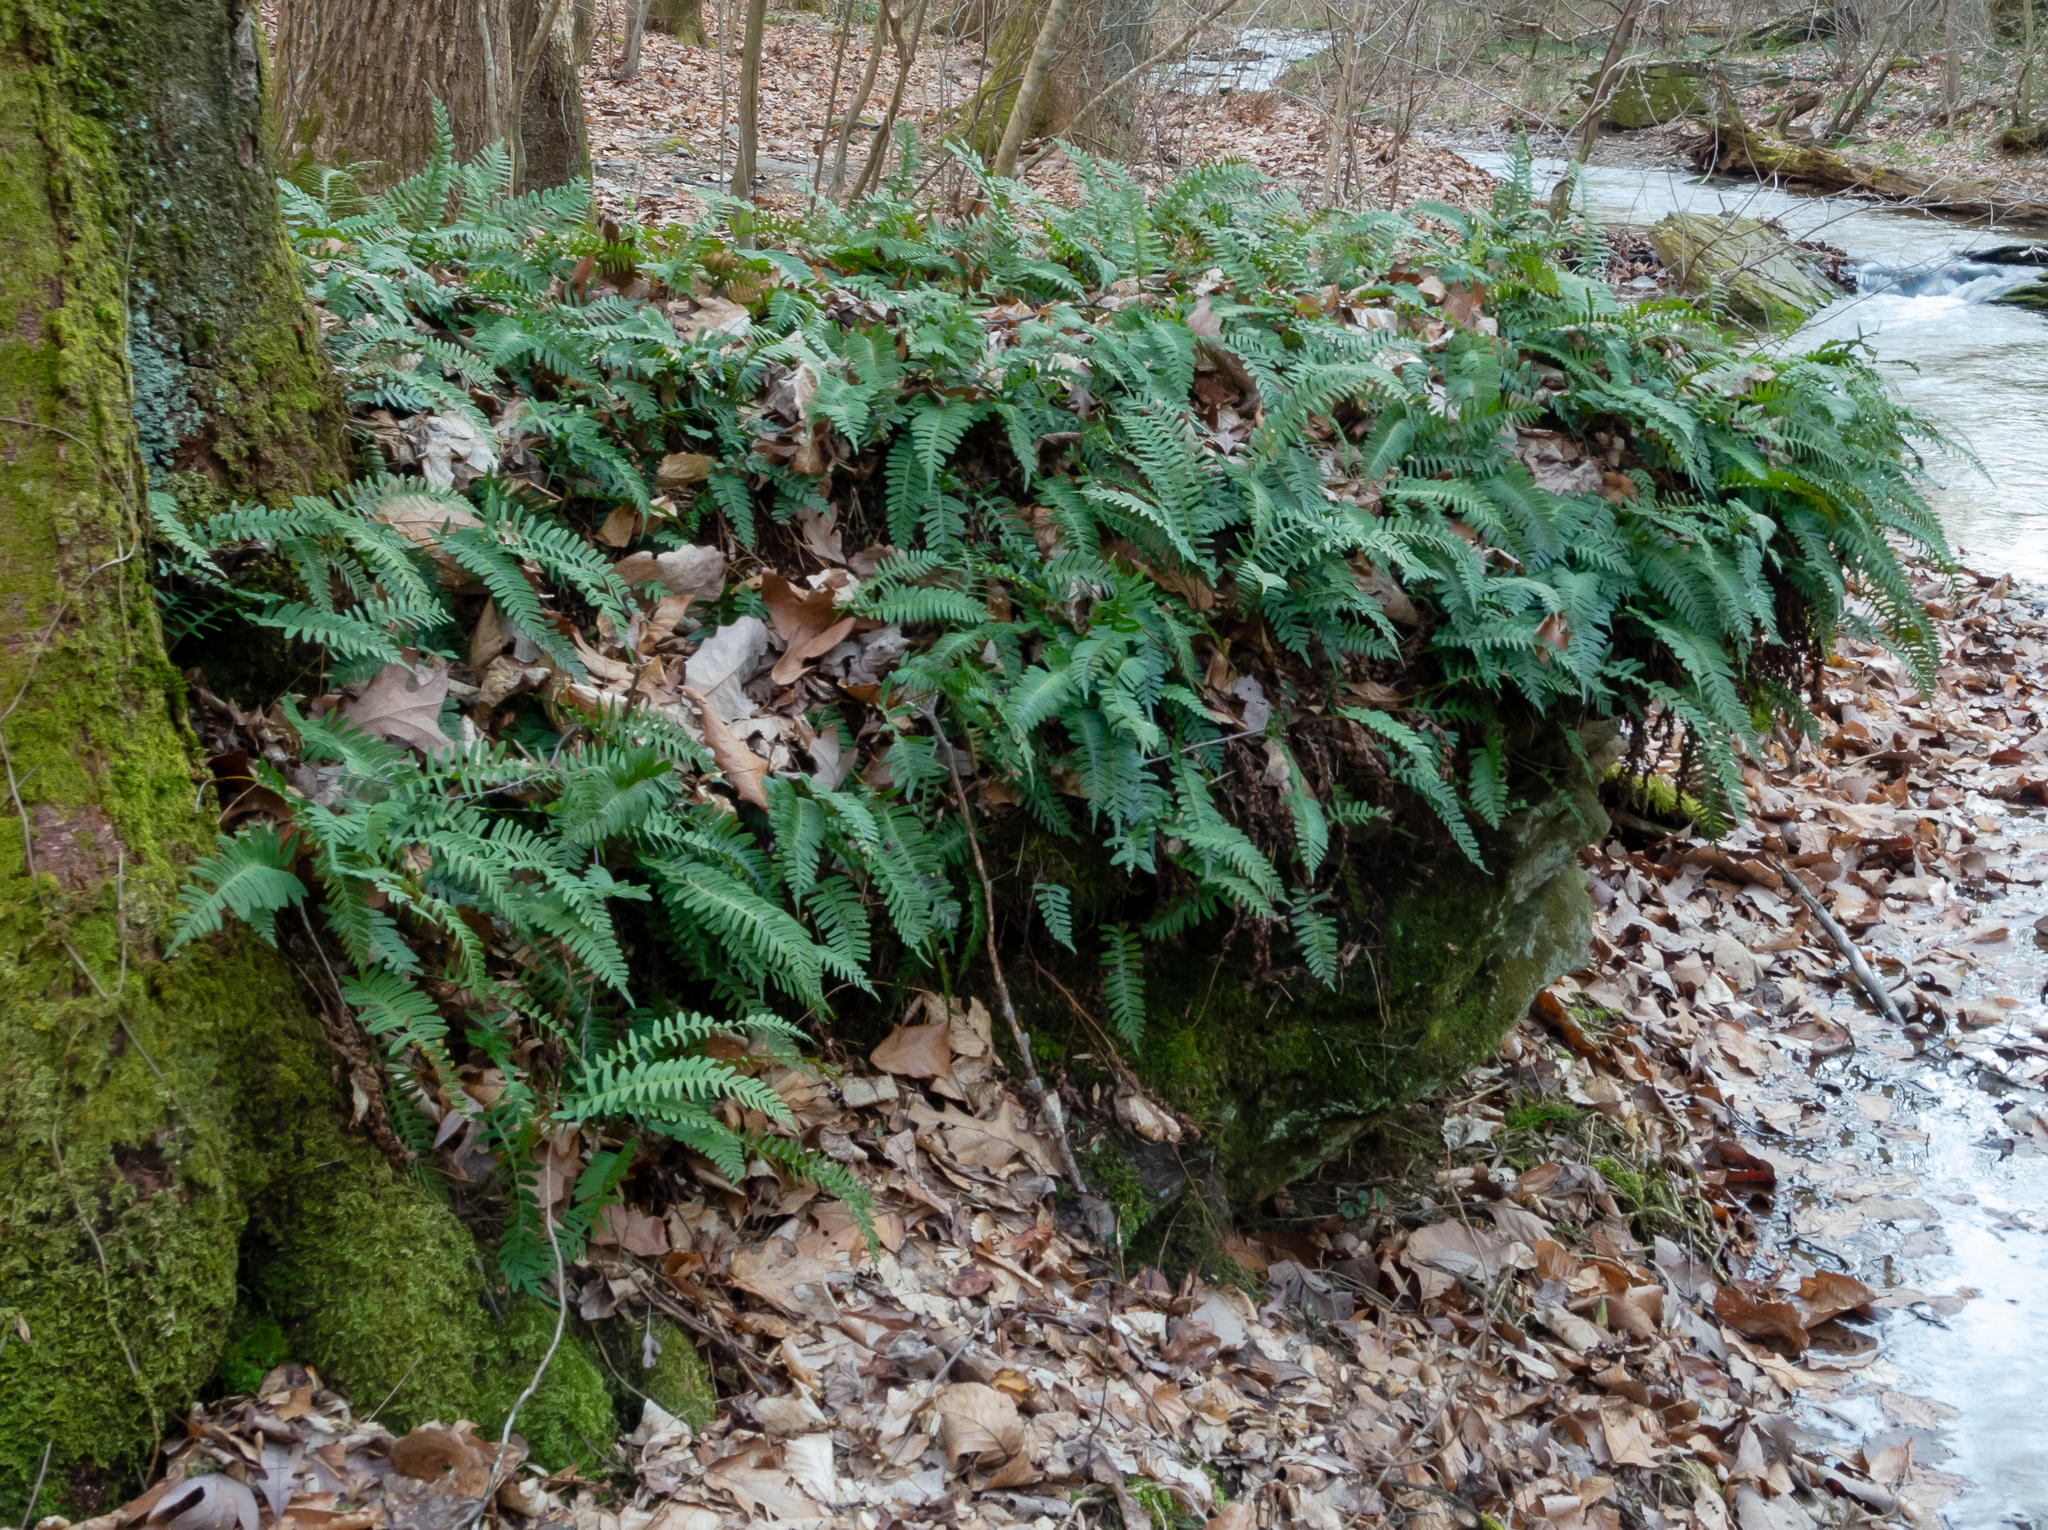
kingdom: Plantae
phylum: Tracheophyta
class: Polypodiopsida
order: Polypodiales
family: Polypodiaceae
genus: Polypodium
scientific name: Polypodium virginianum
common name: American wall fern
